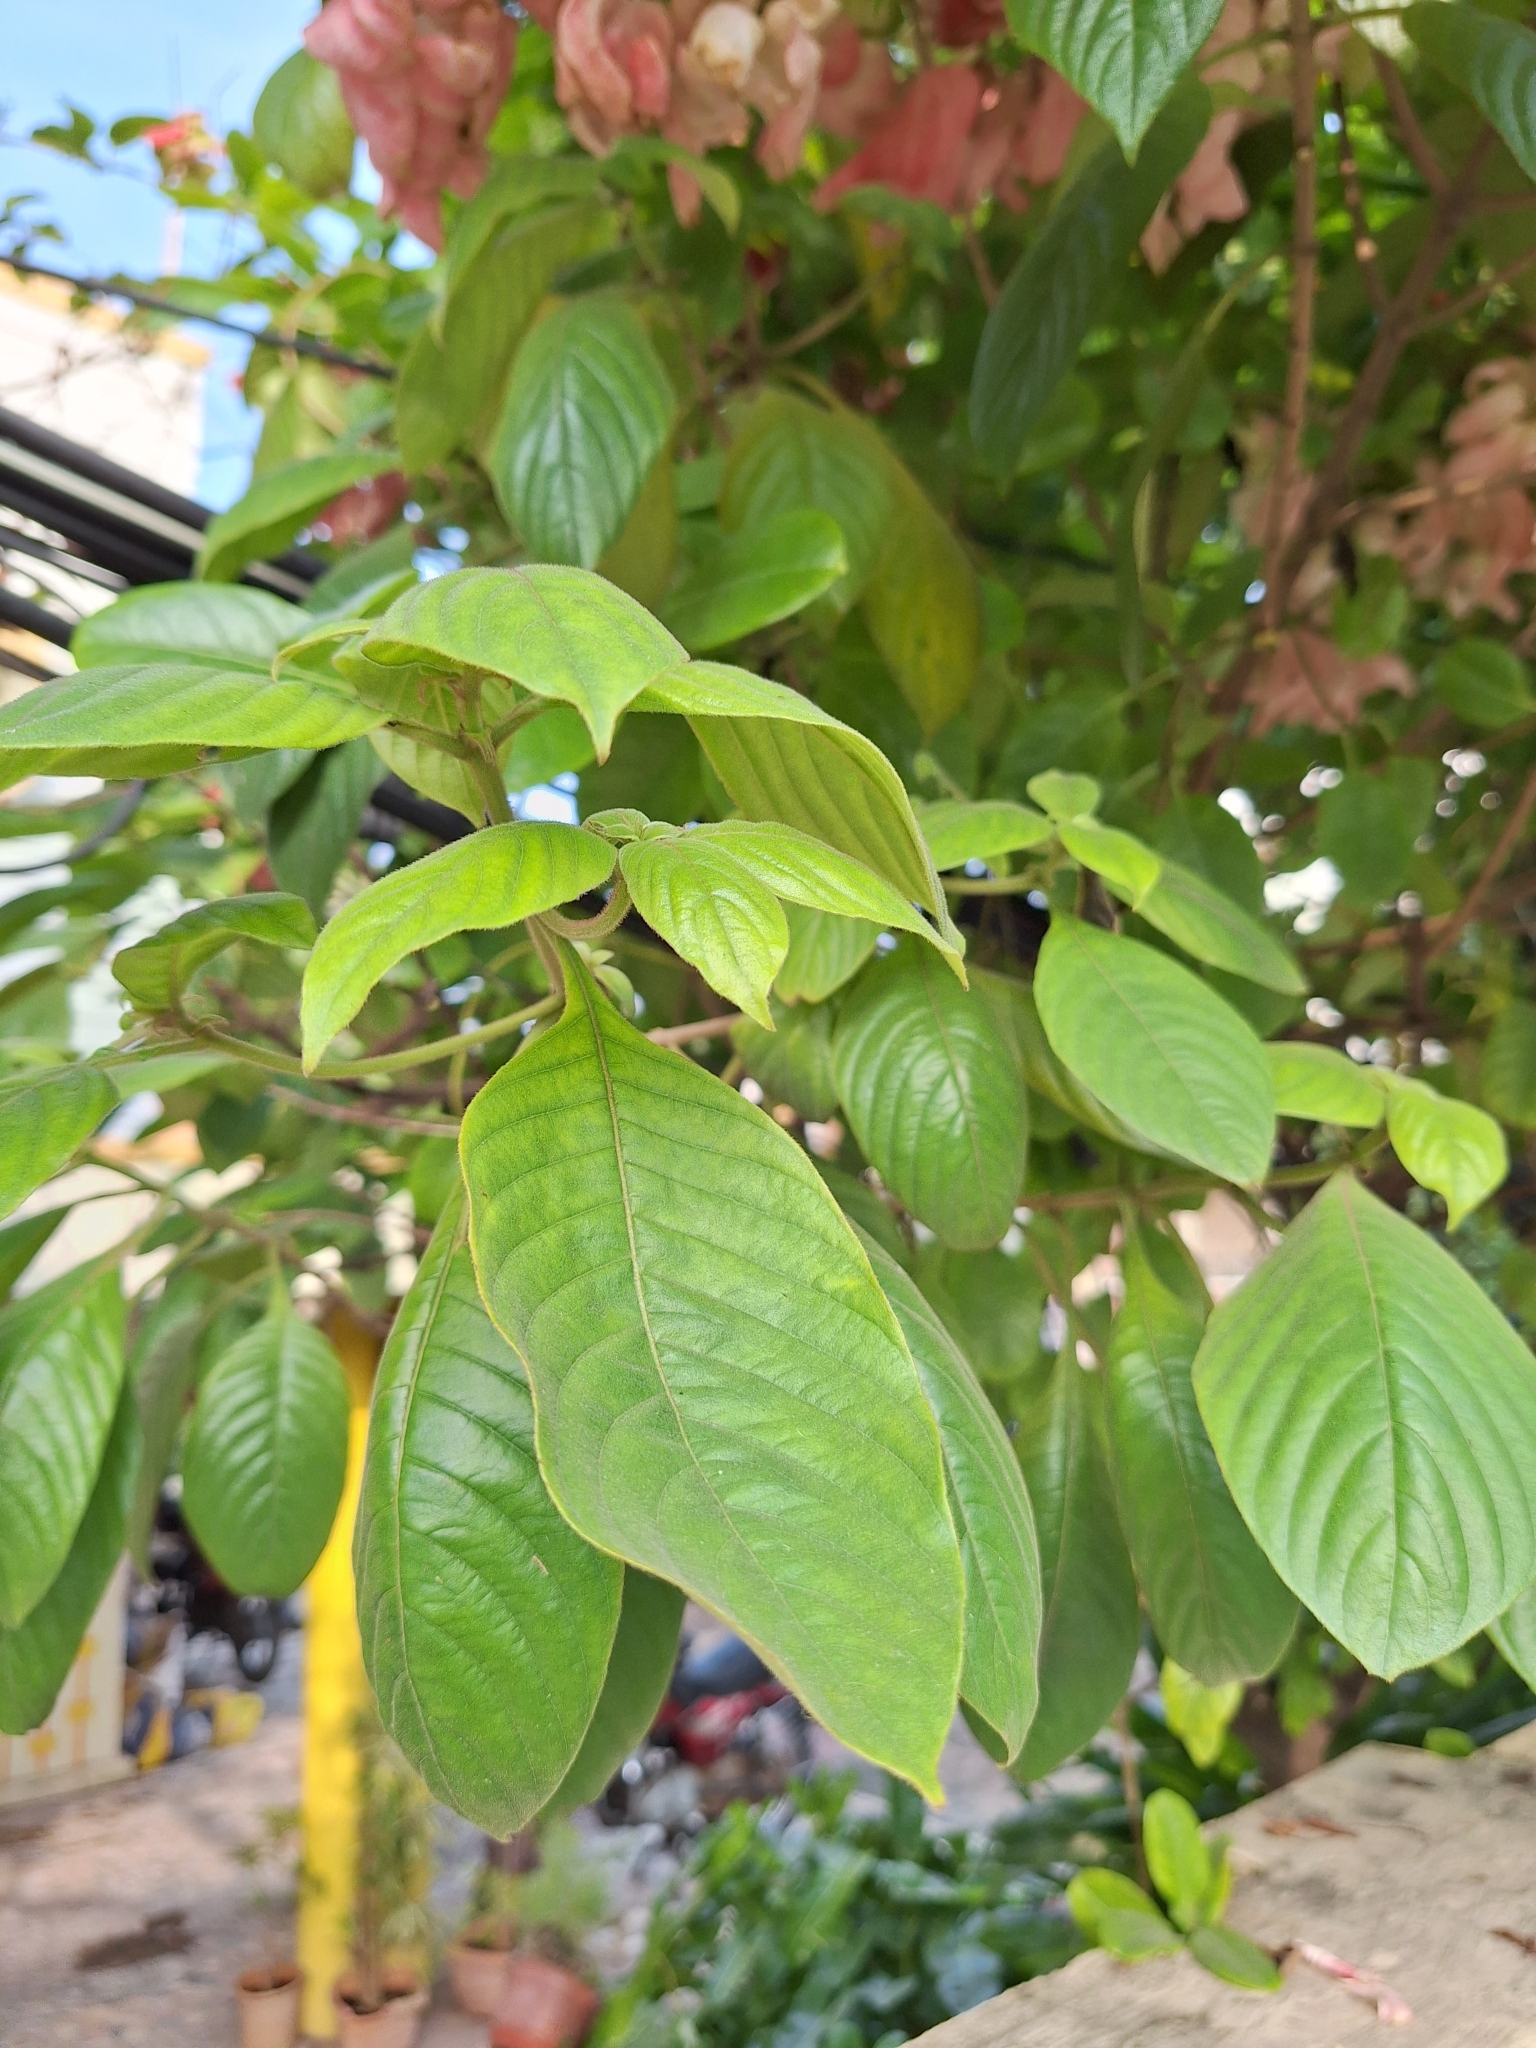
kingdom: Plantae
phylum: Tracheophyta
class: Magnoliopsida
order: Gentianales
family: Rubiaceae
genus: Mussaenda
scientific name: Mussaenda philippica
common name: Philippine mussaenda
